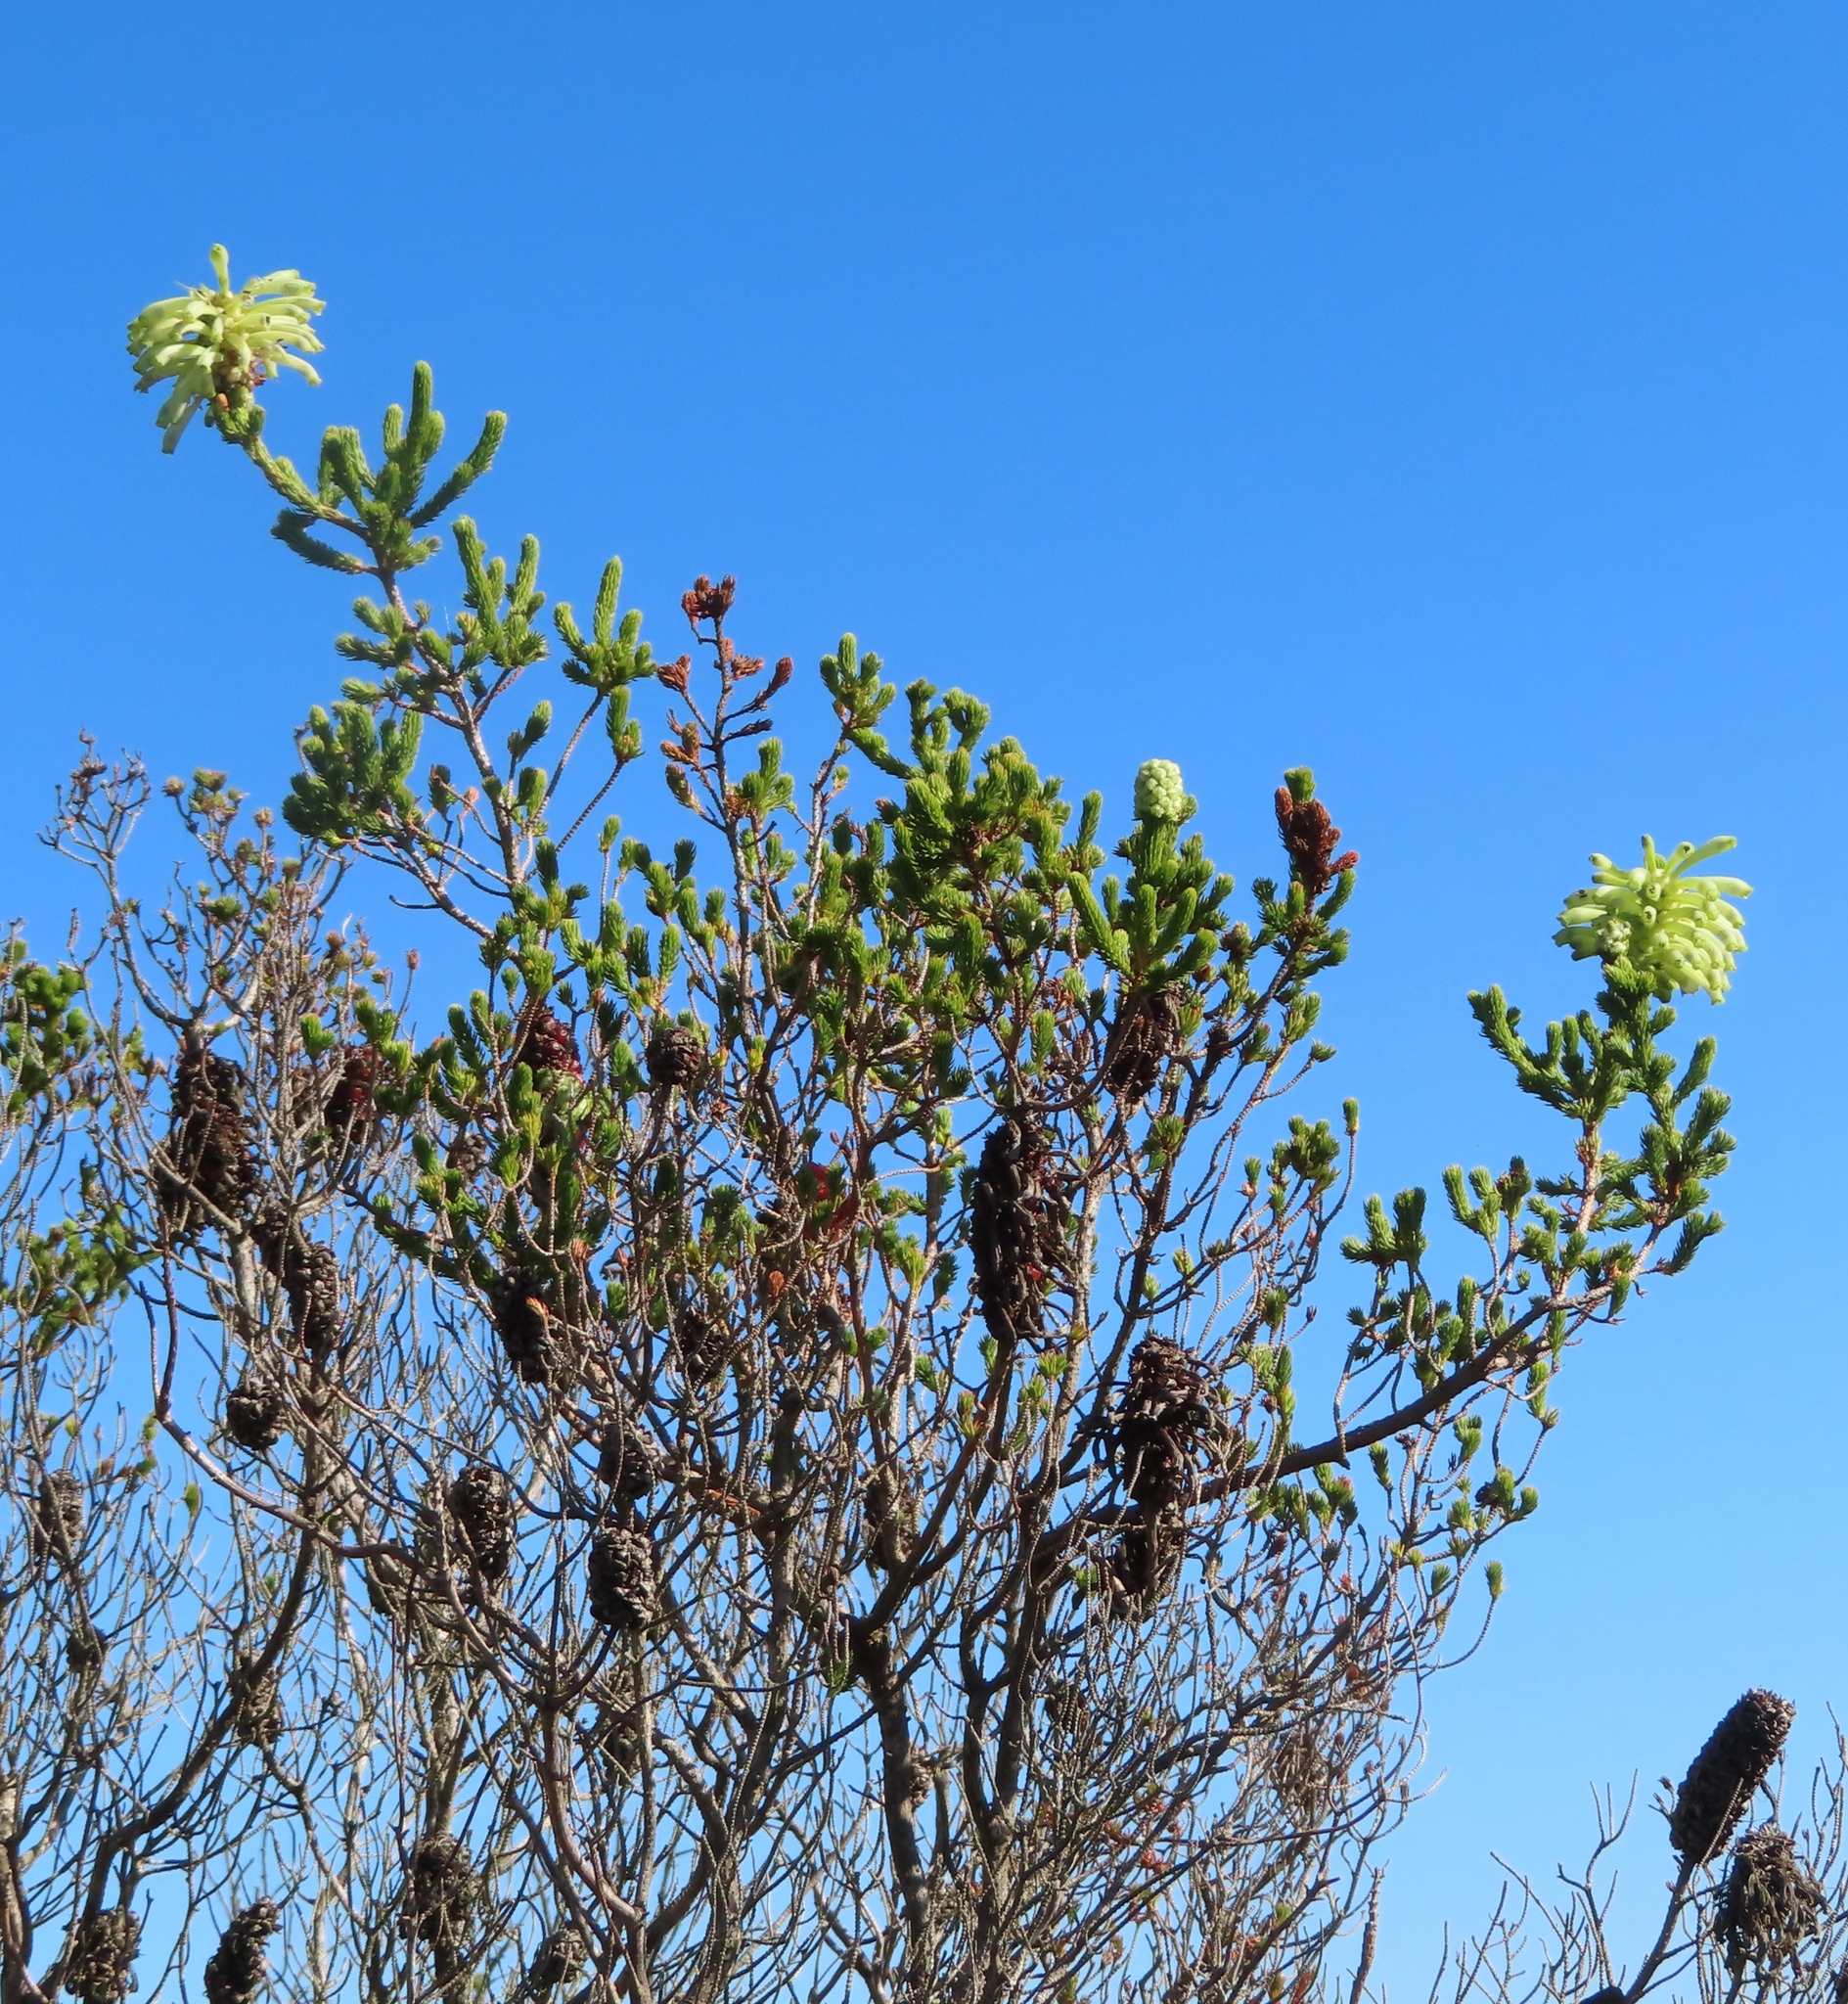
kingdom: Plantae
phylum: Tracheophyta
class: Magnoliopsida
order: Ericales
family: Ericaceae
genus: Erica
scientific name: Erica sessiliflora
